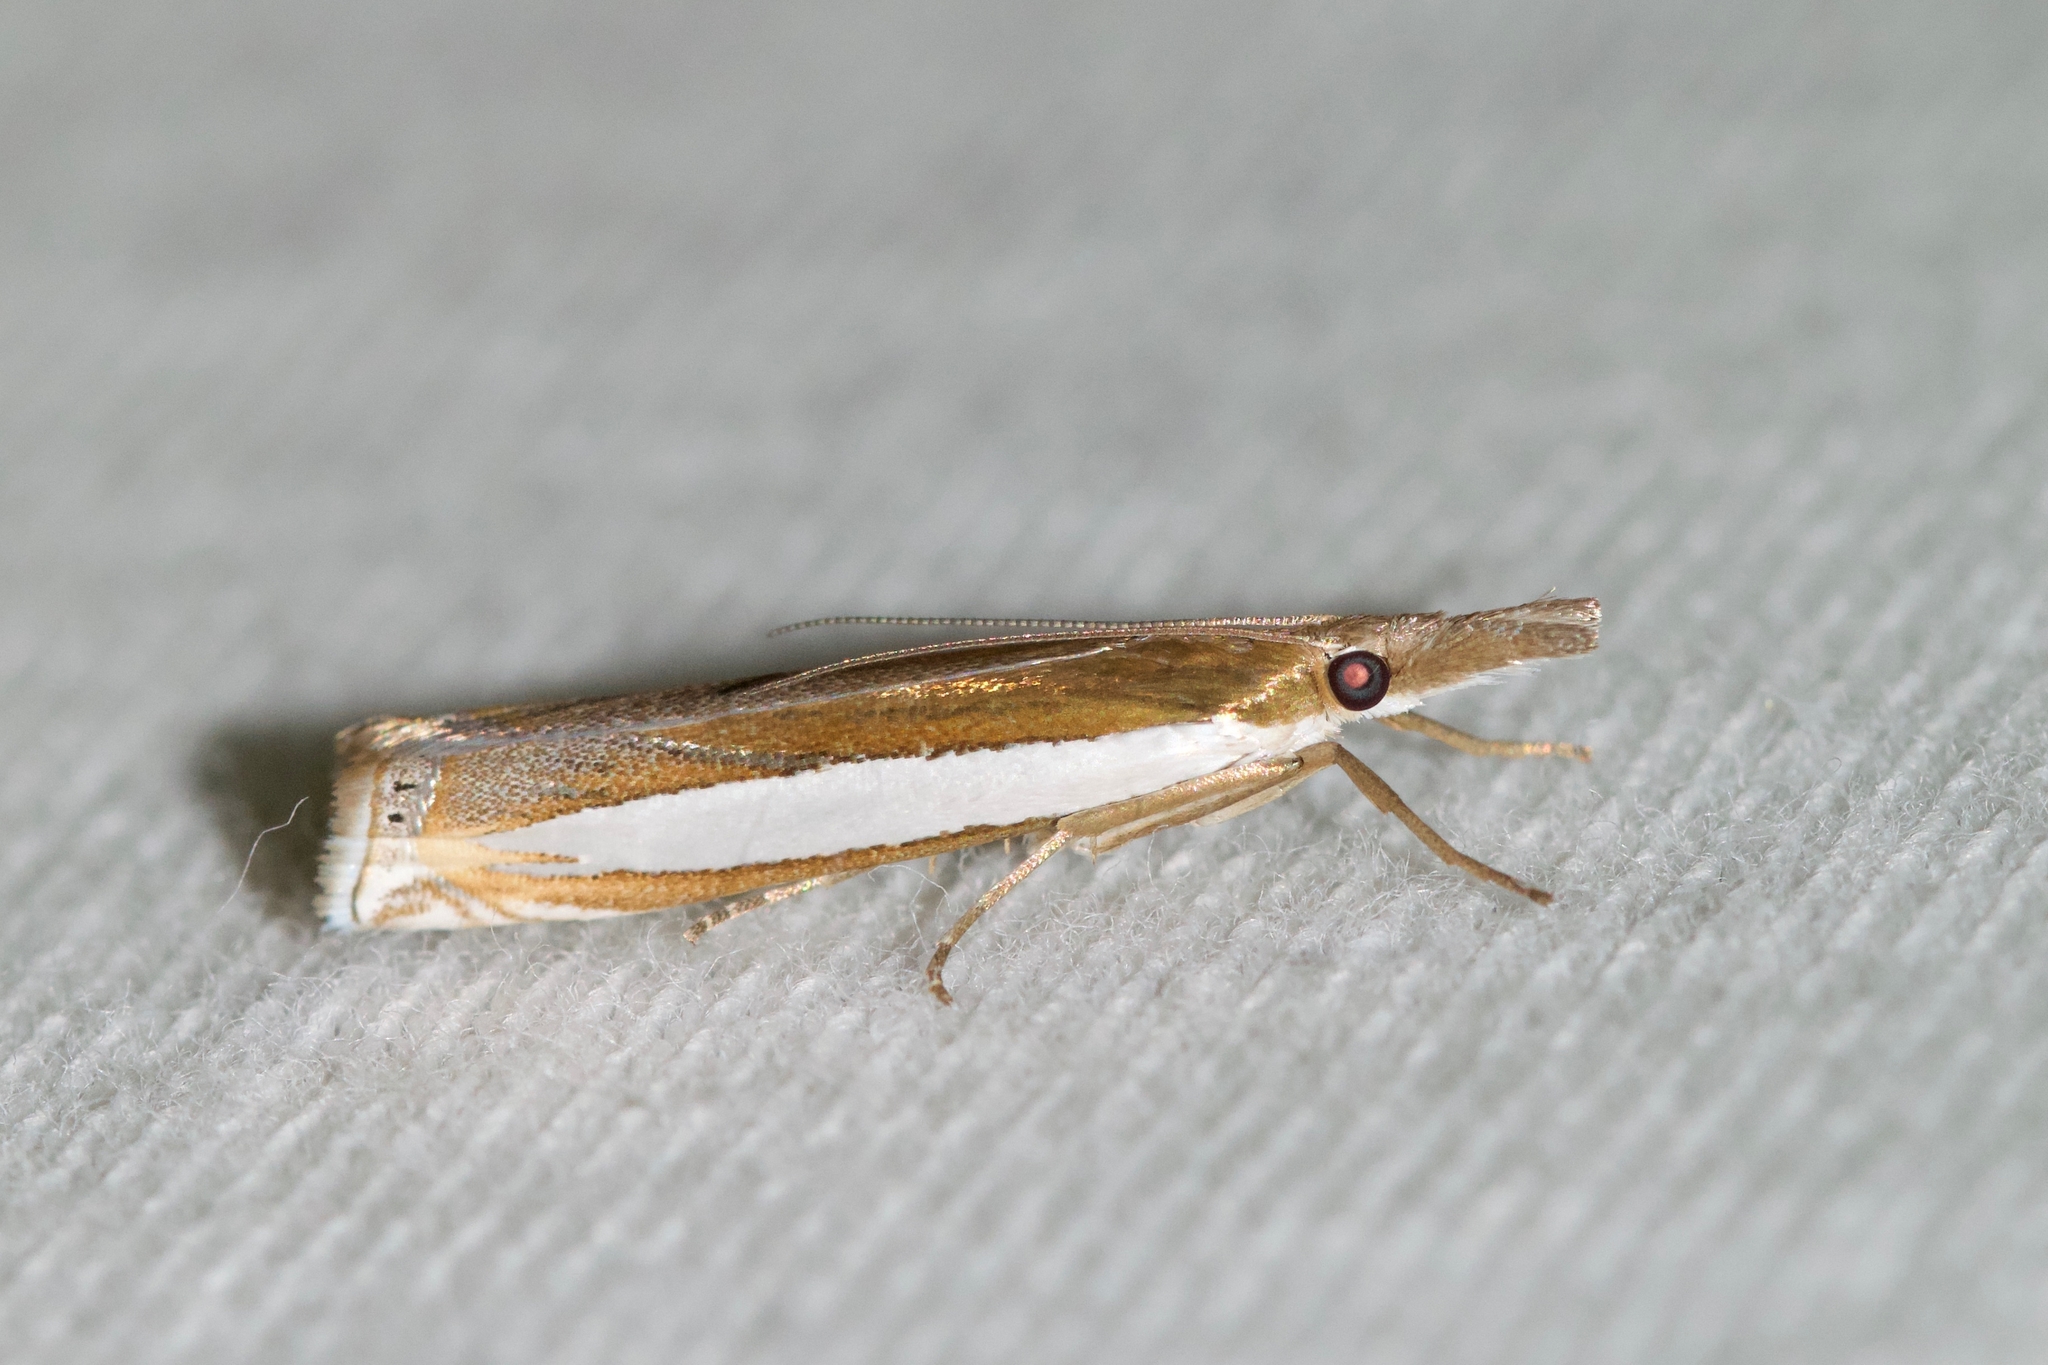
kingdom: Animalia
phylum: Arthropoda
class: Insecta
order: Lepidoptera
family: Crambidae
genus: Crambus
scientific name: Crambus leachellus
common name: Leach's grass-veneer
